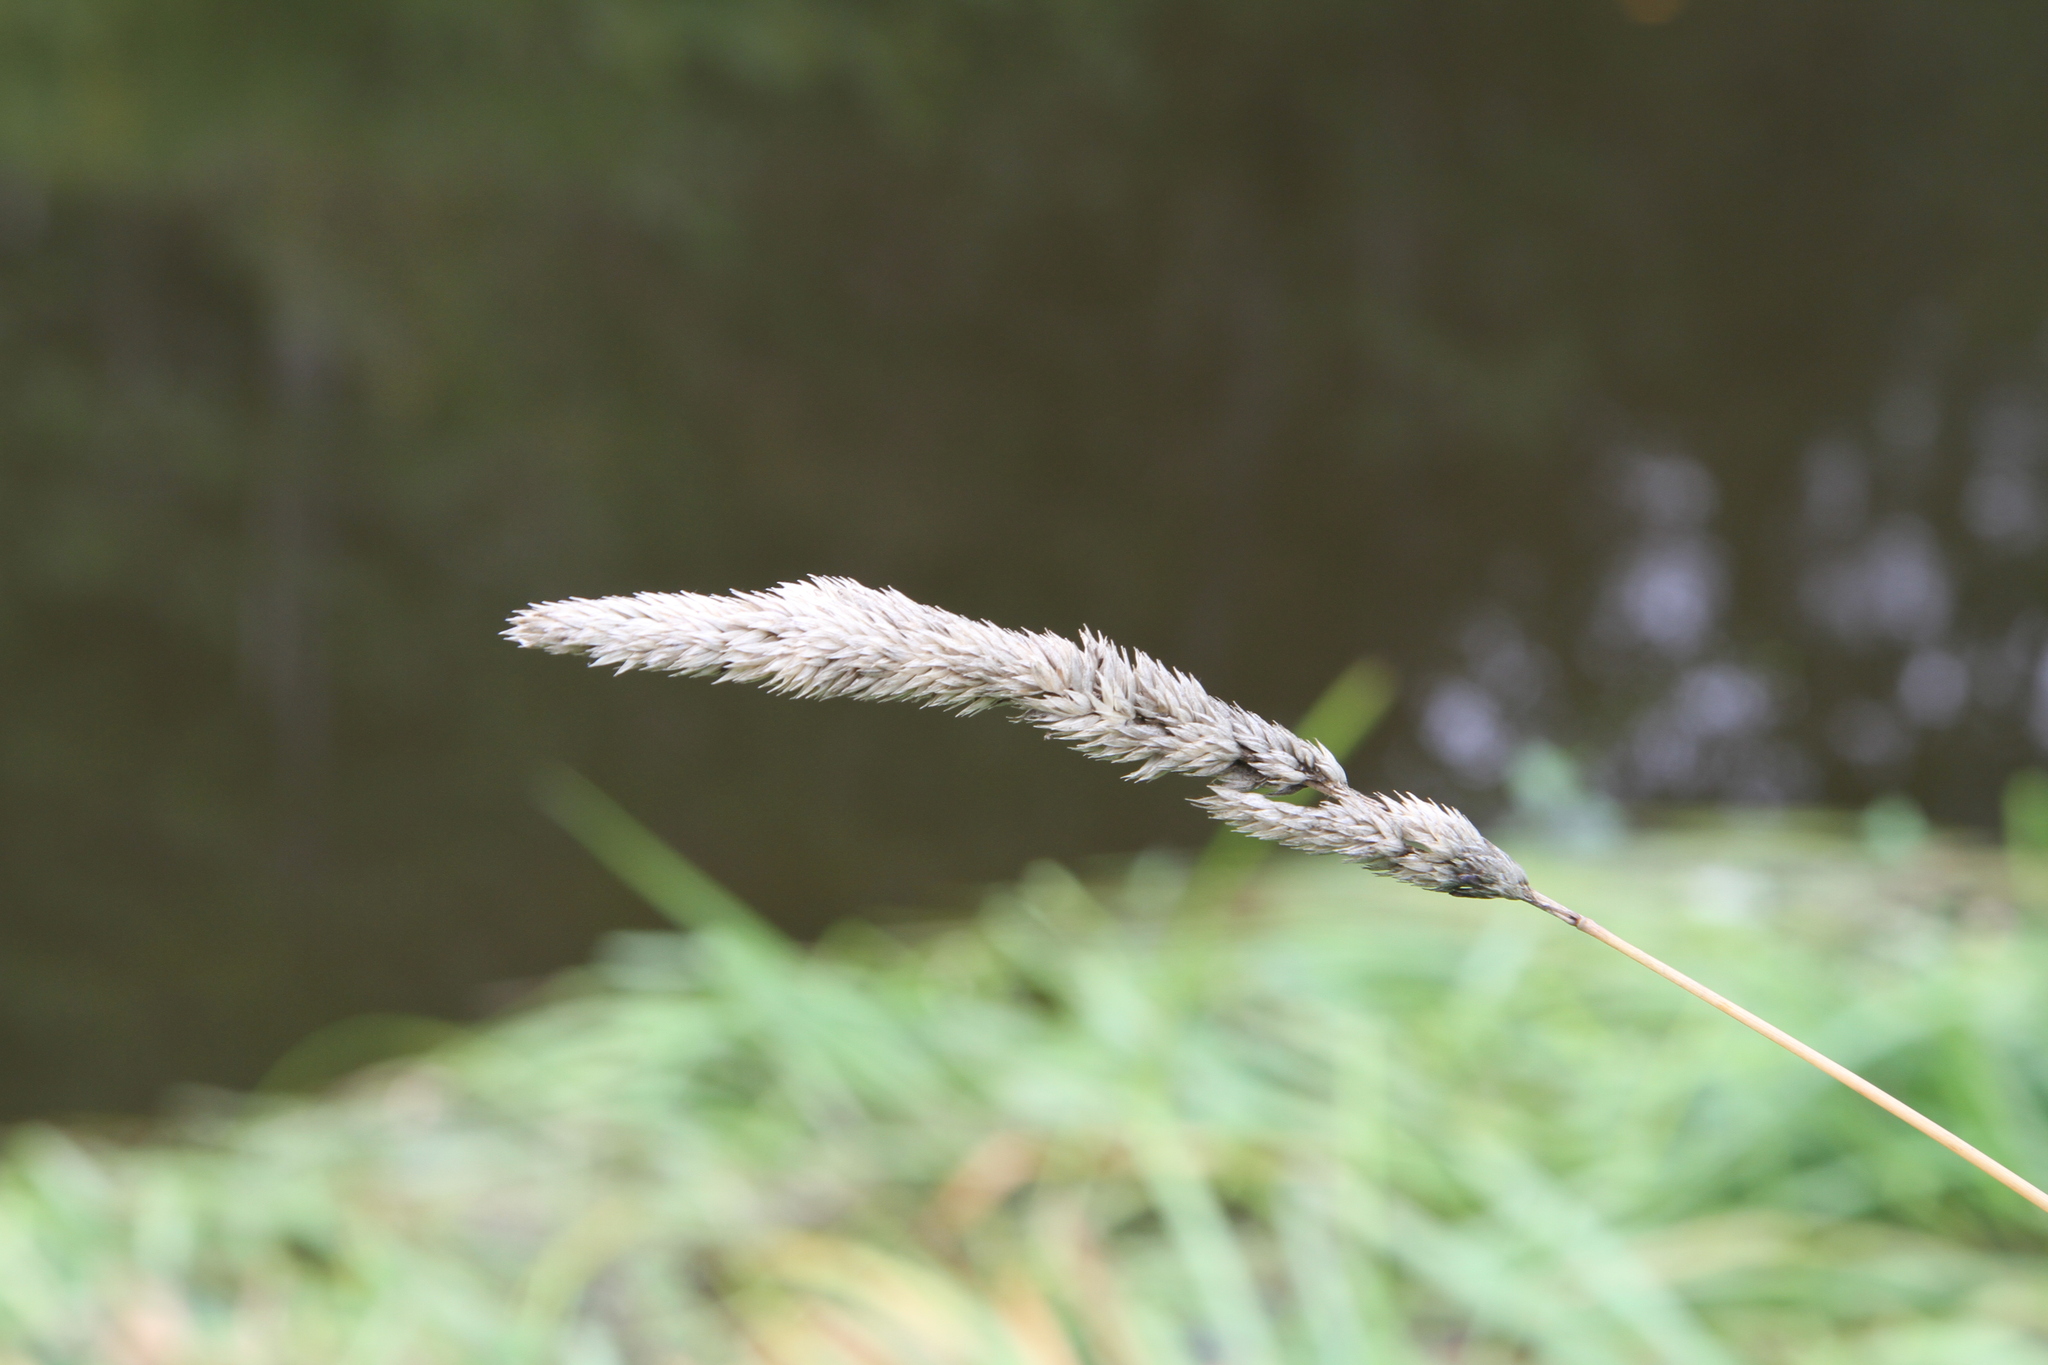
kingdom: Plantae
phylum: Tracheophyta
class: Liliopsida
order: Poales
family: Poaceae
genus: Phalaris
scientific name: Phalaris arundinacea
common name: Reed canary-grass
